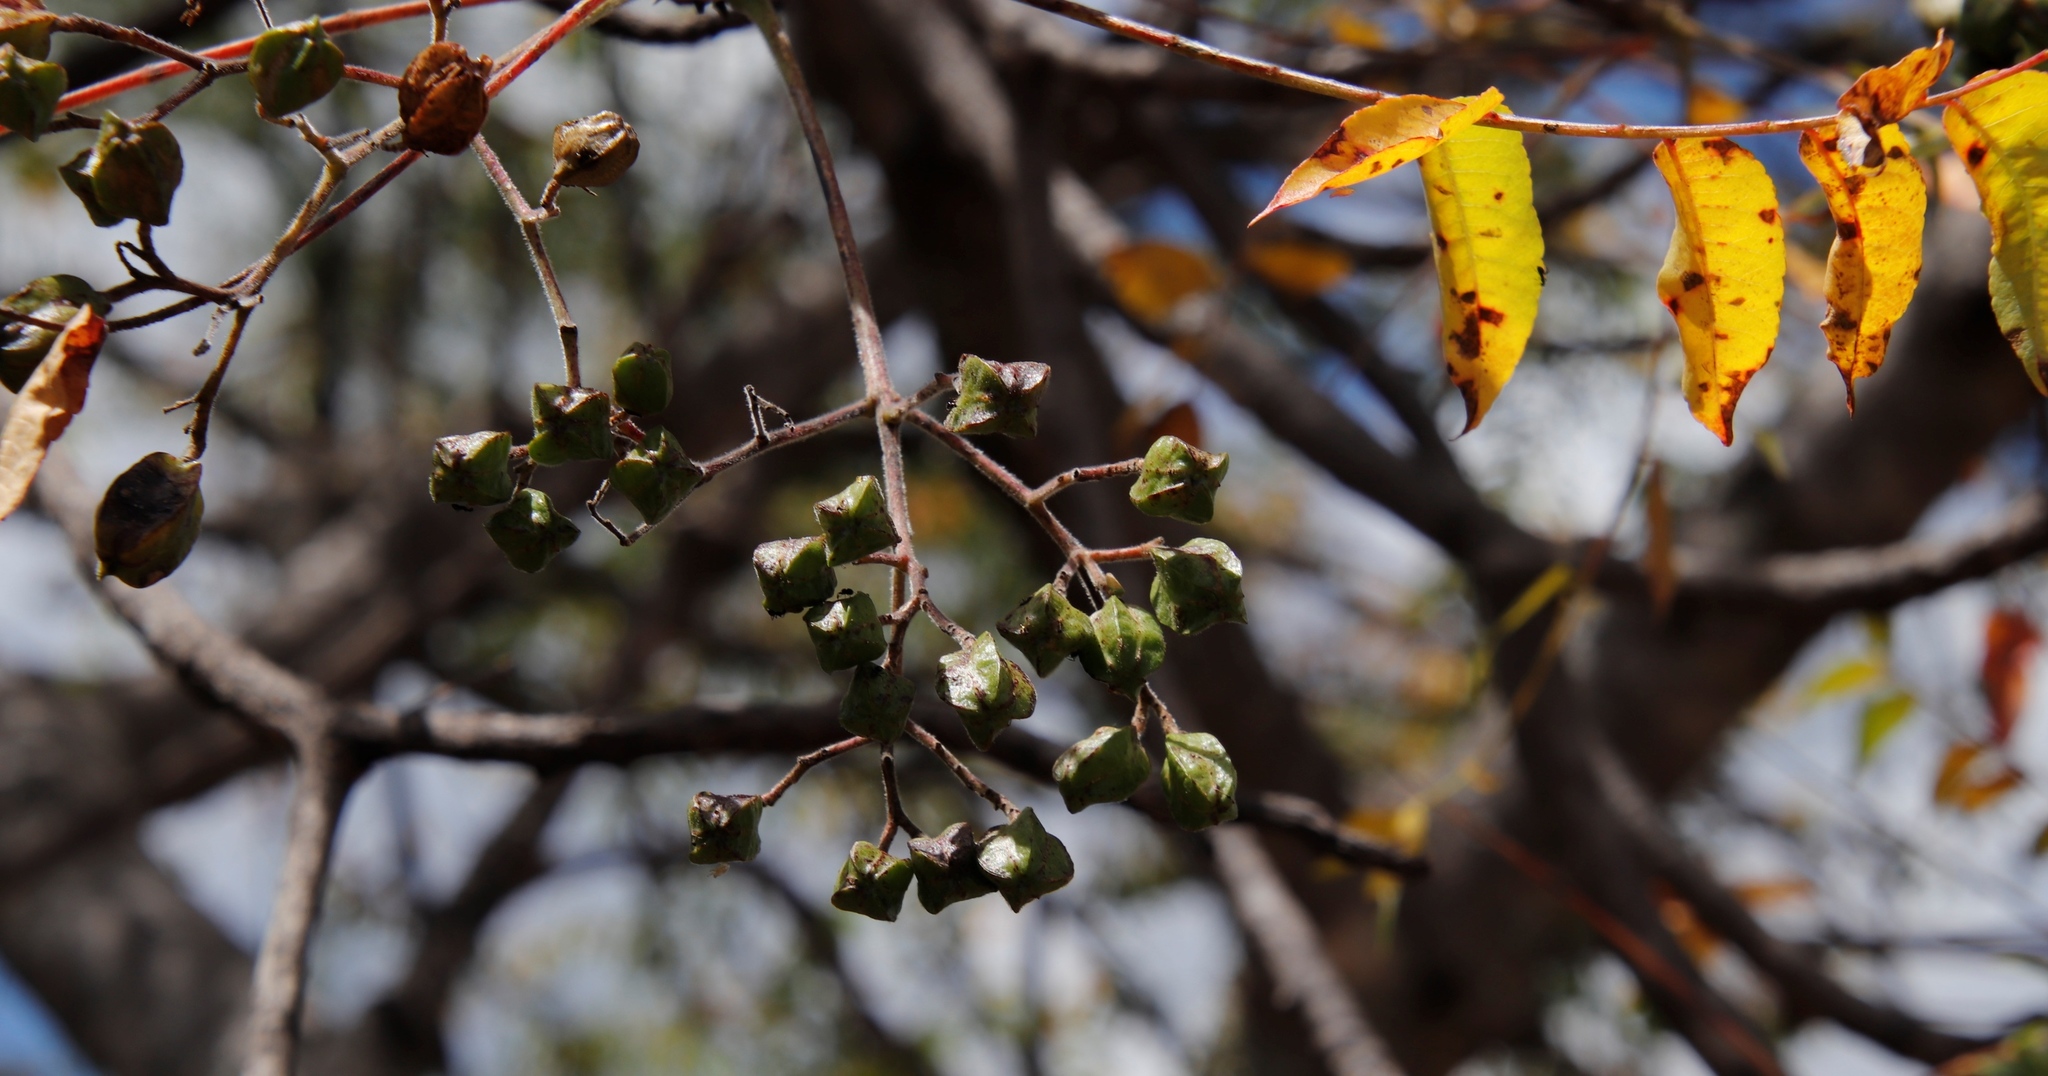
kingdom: Plantae
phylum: Tracheophyta
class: Magnoliopsida
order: Sapindales
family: Kirkiaceae
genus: Kirkia
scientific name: Kirkia acuminata
